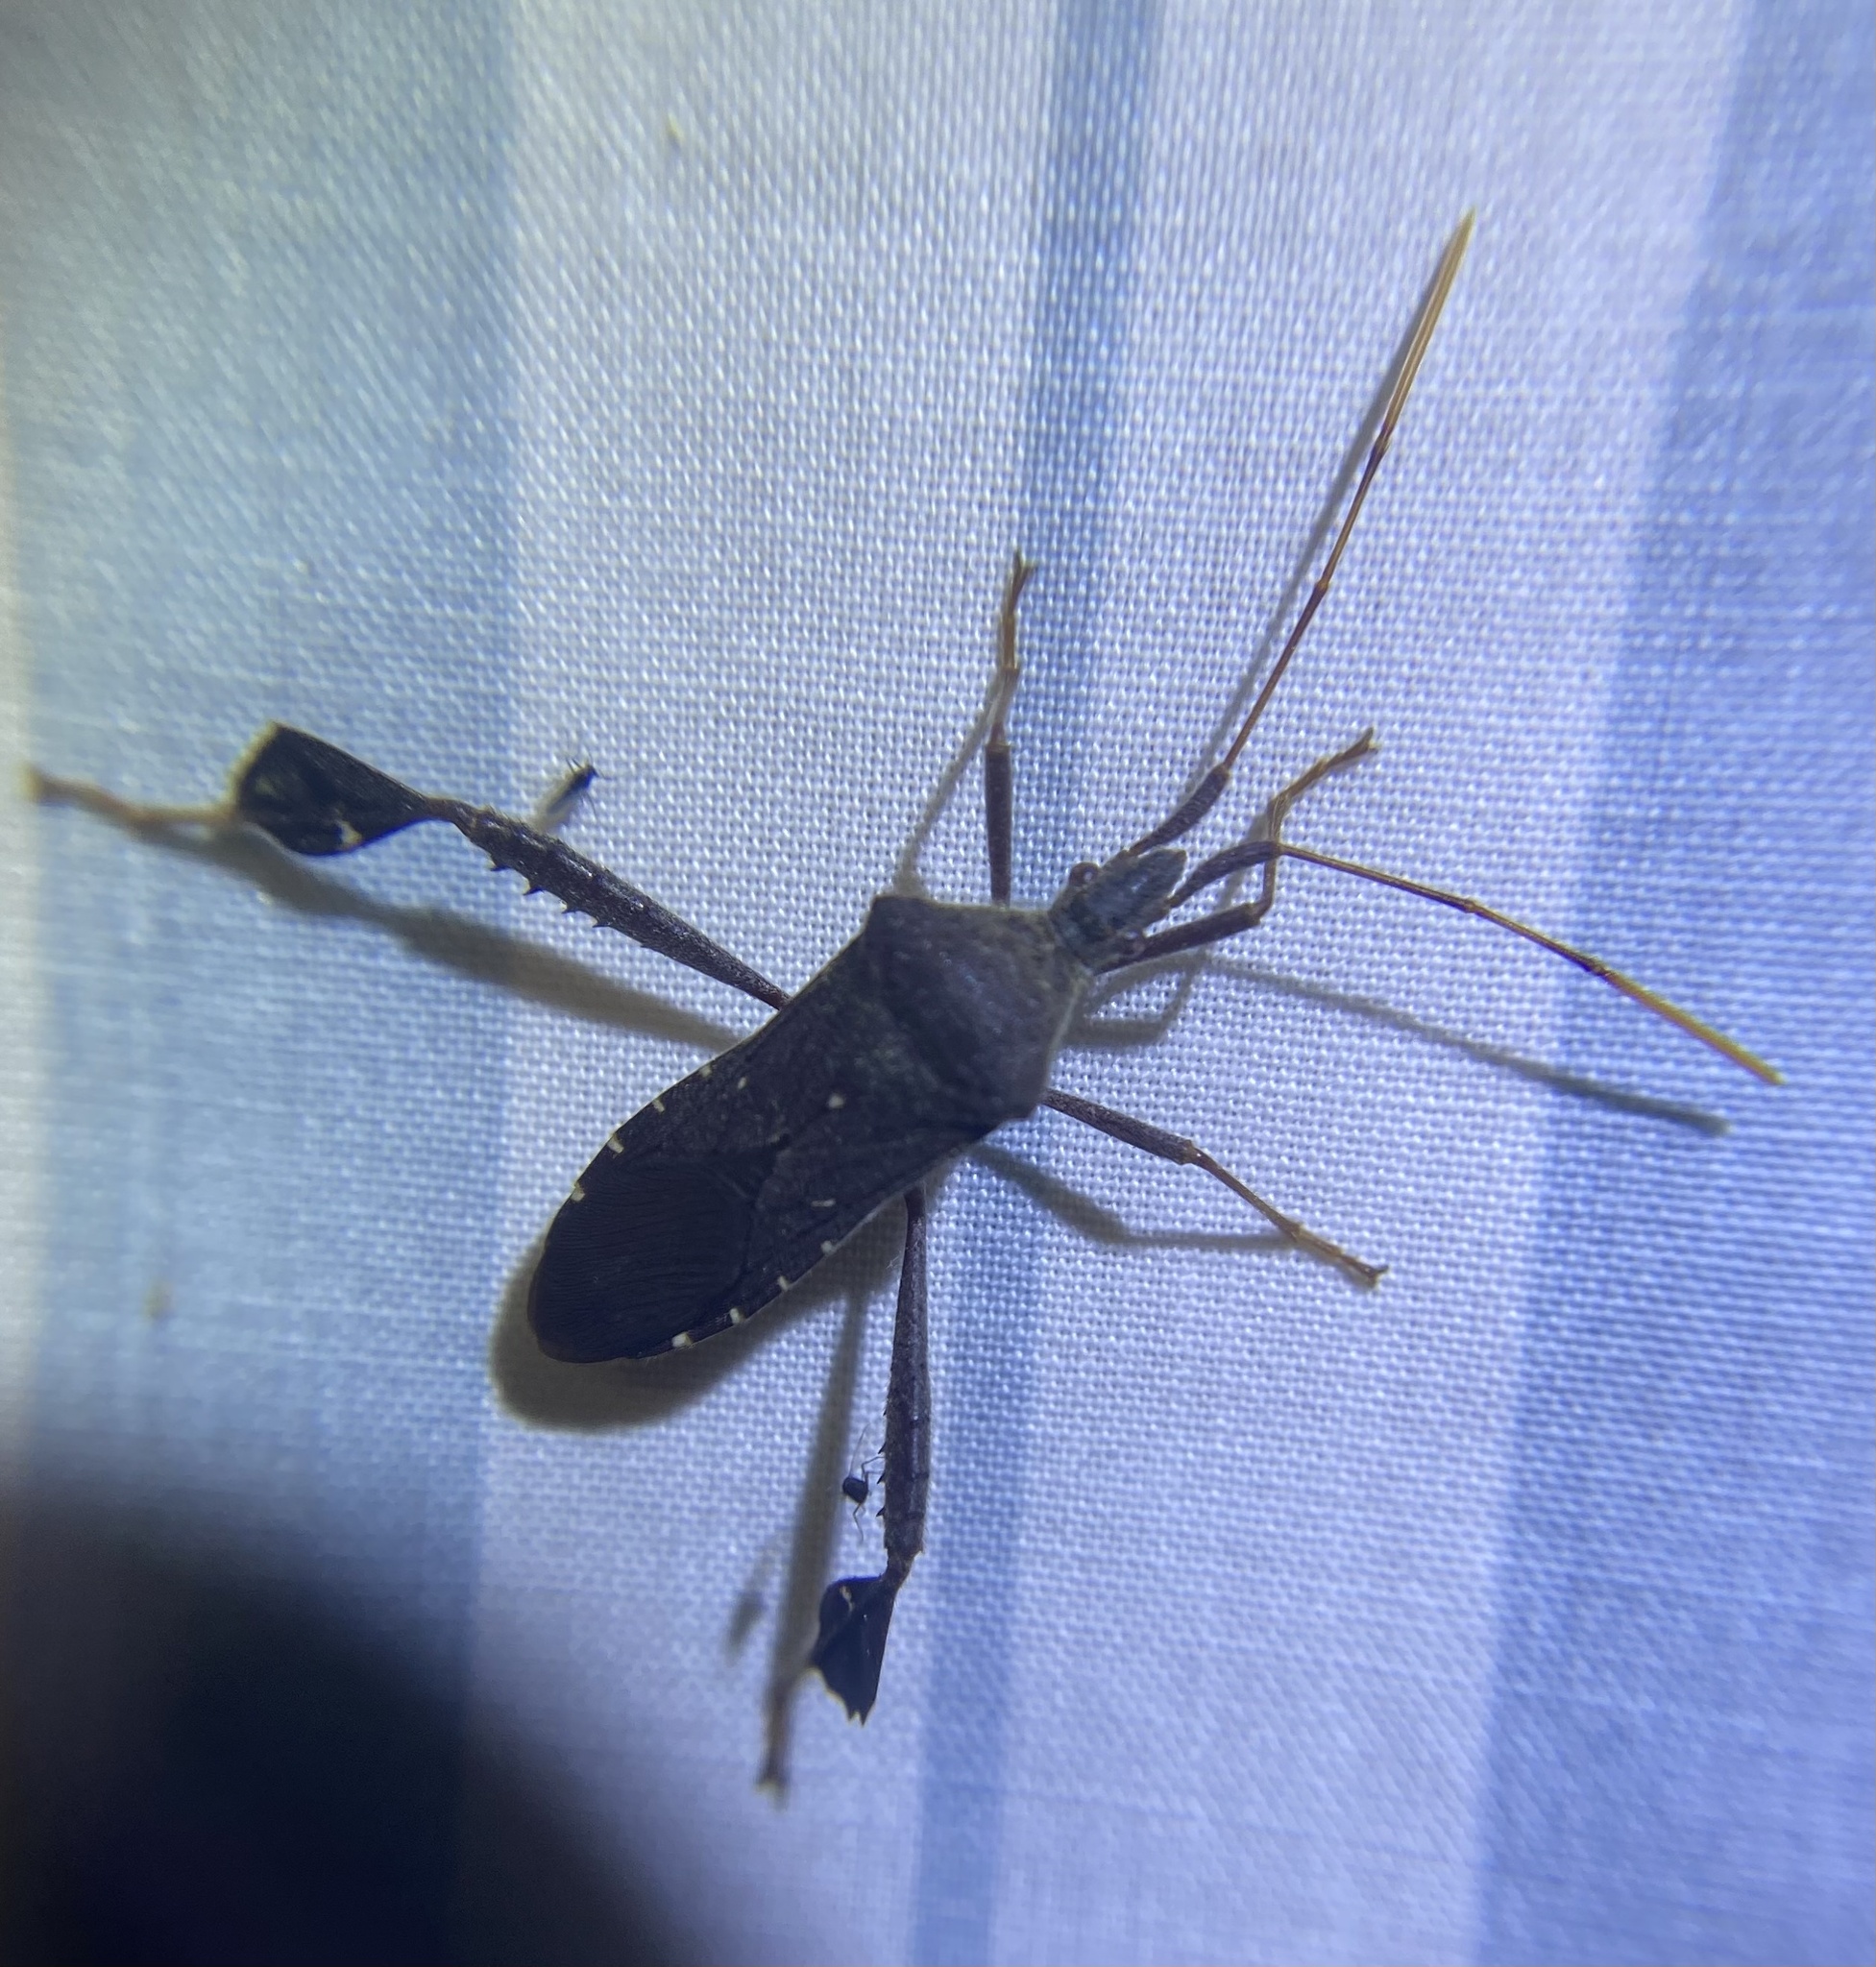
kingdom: Animalia
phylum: Arthropoda
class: Insecta
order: Hemiptera
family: Coreidae
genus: Leptoglossus
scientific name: Leptoglossus oppositus
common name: Northern leaf-footed bug
